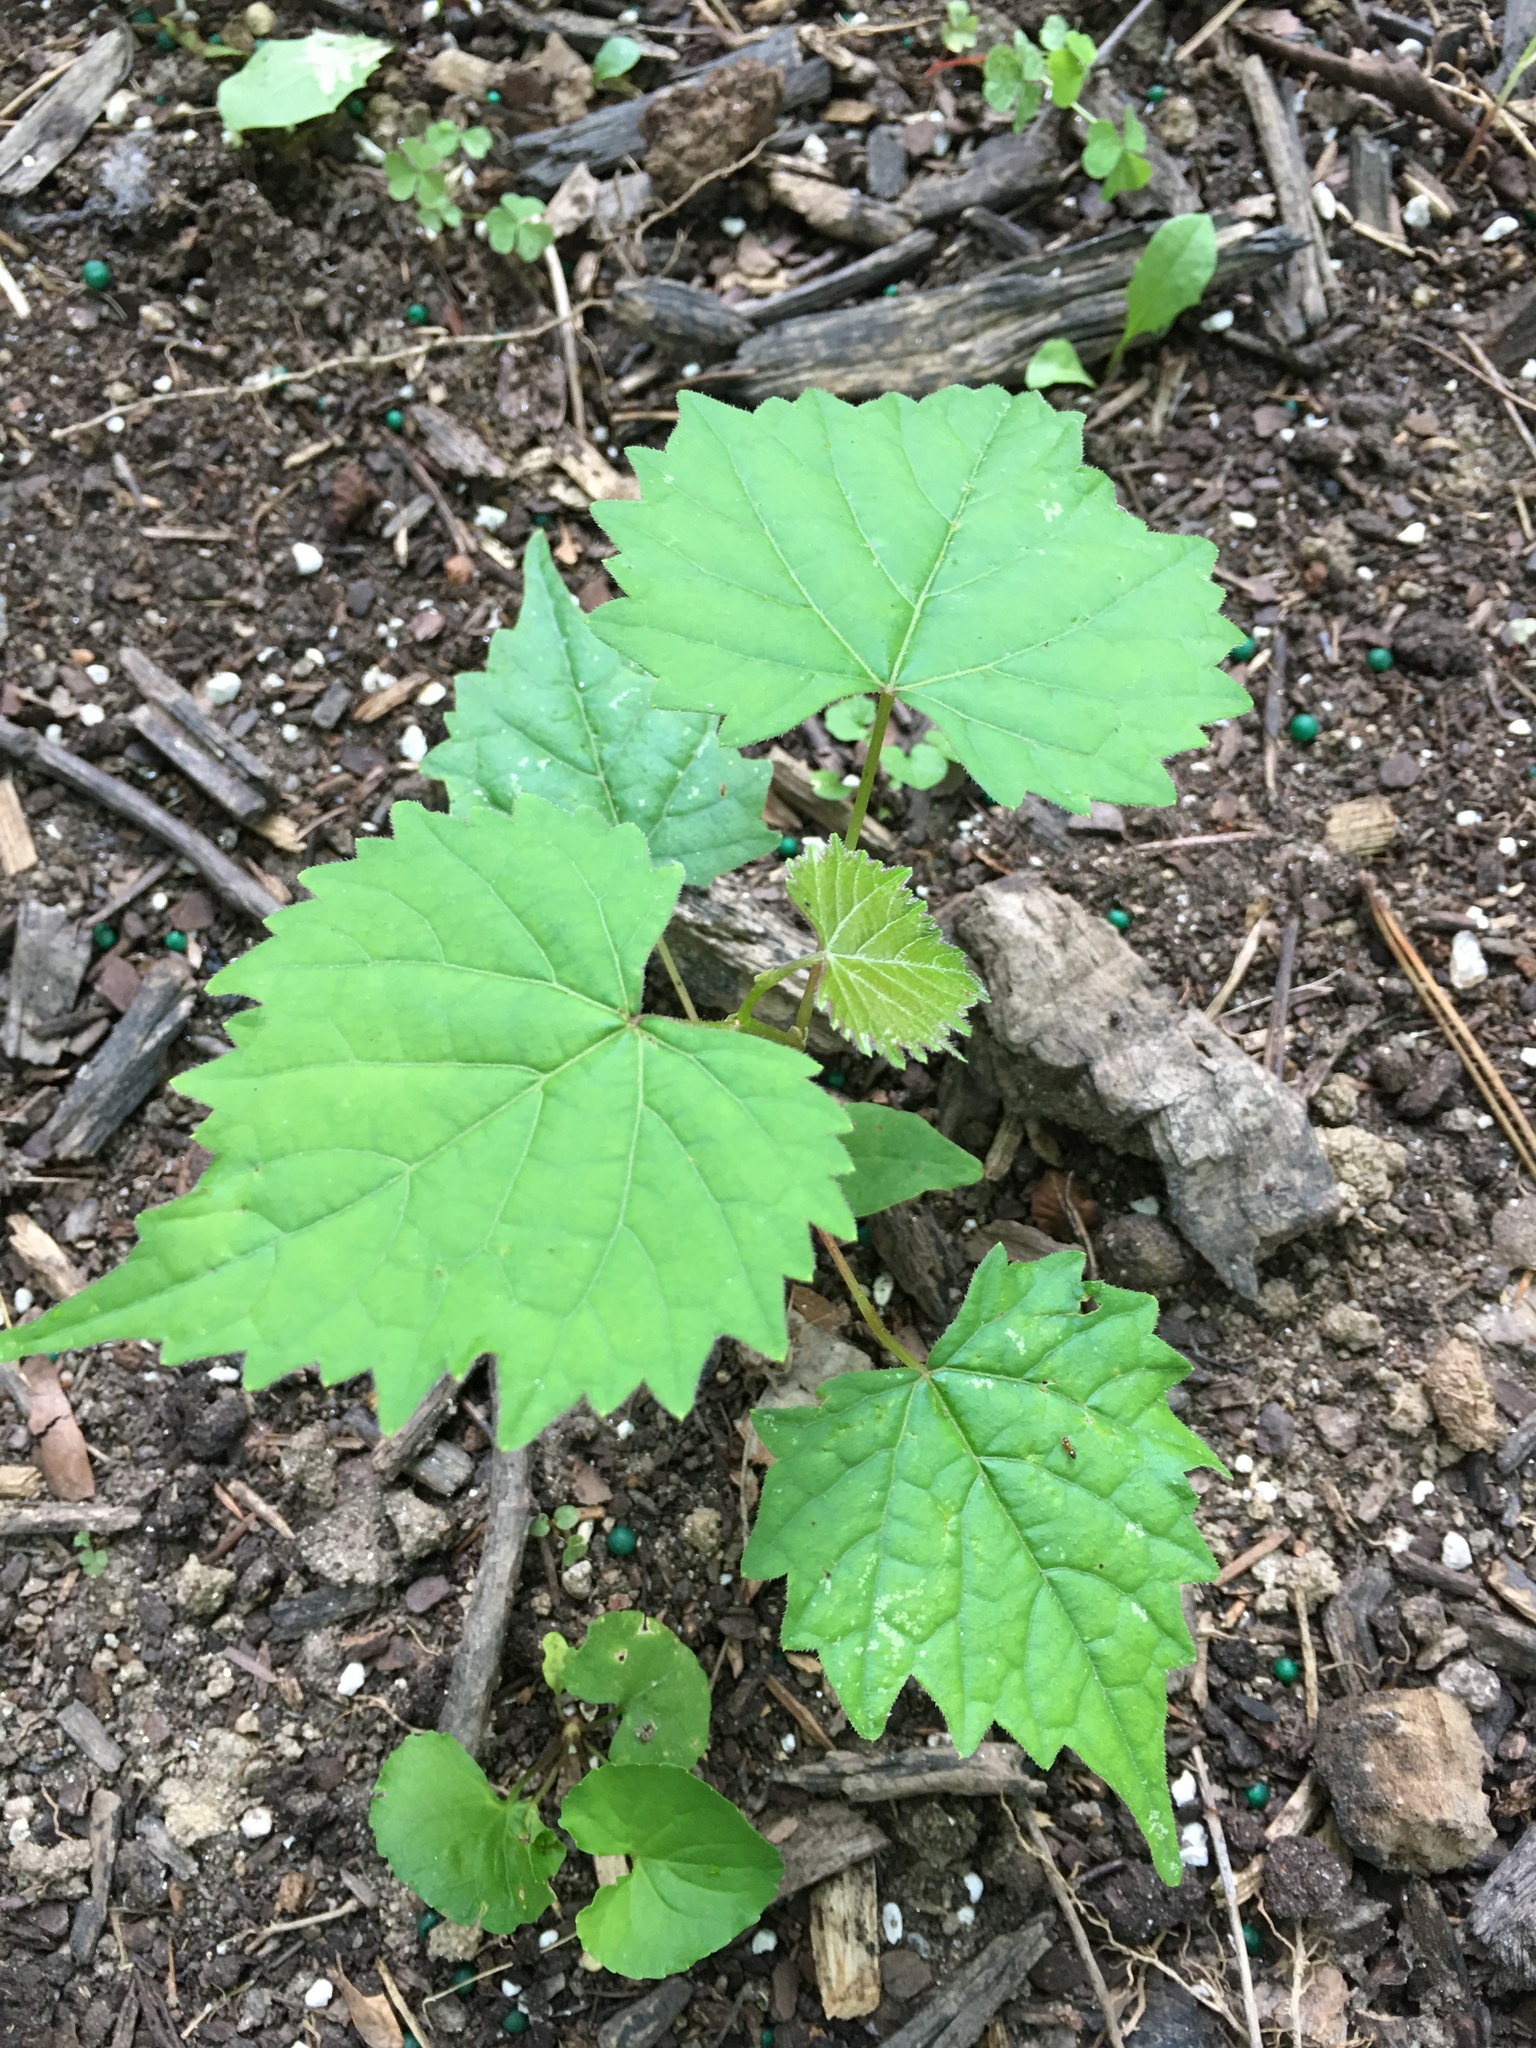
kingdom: Plantae
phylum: Tracheophyta
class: Magnoliopsida
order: Vitales
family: Vitaceae
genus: Vitis
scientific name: Vitis rotundifolia
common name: Muscadine grape
